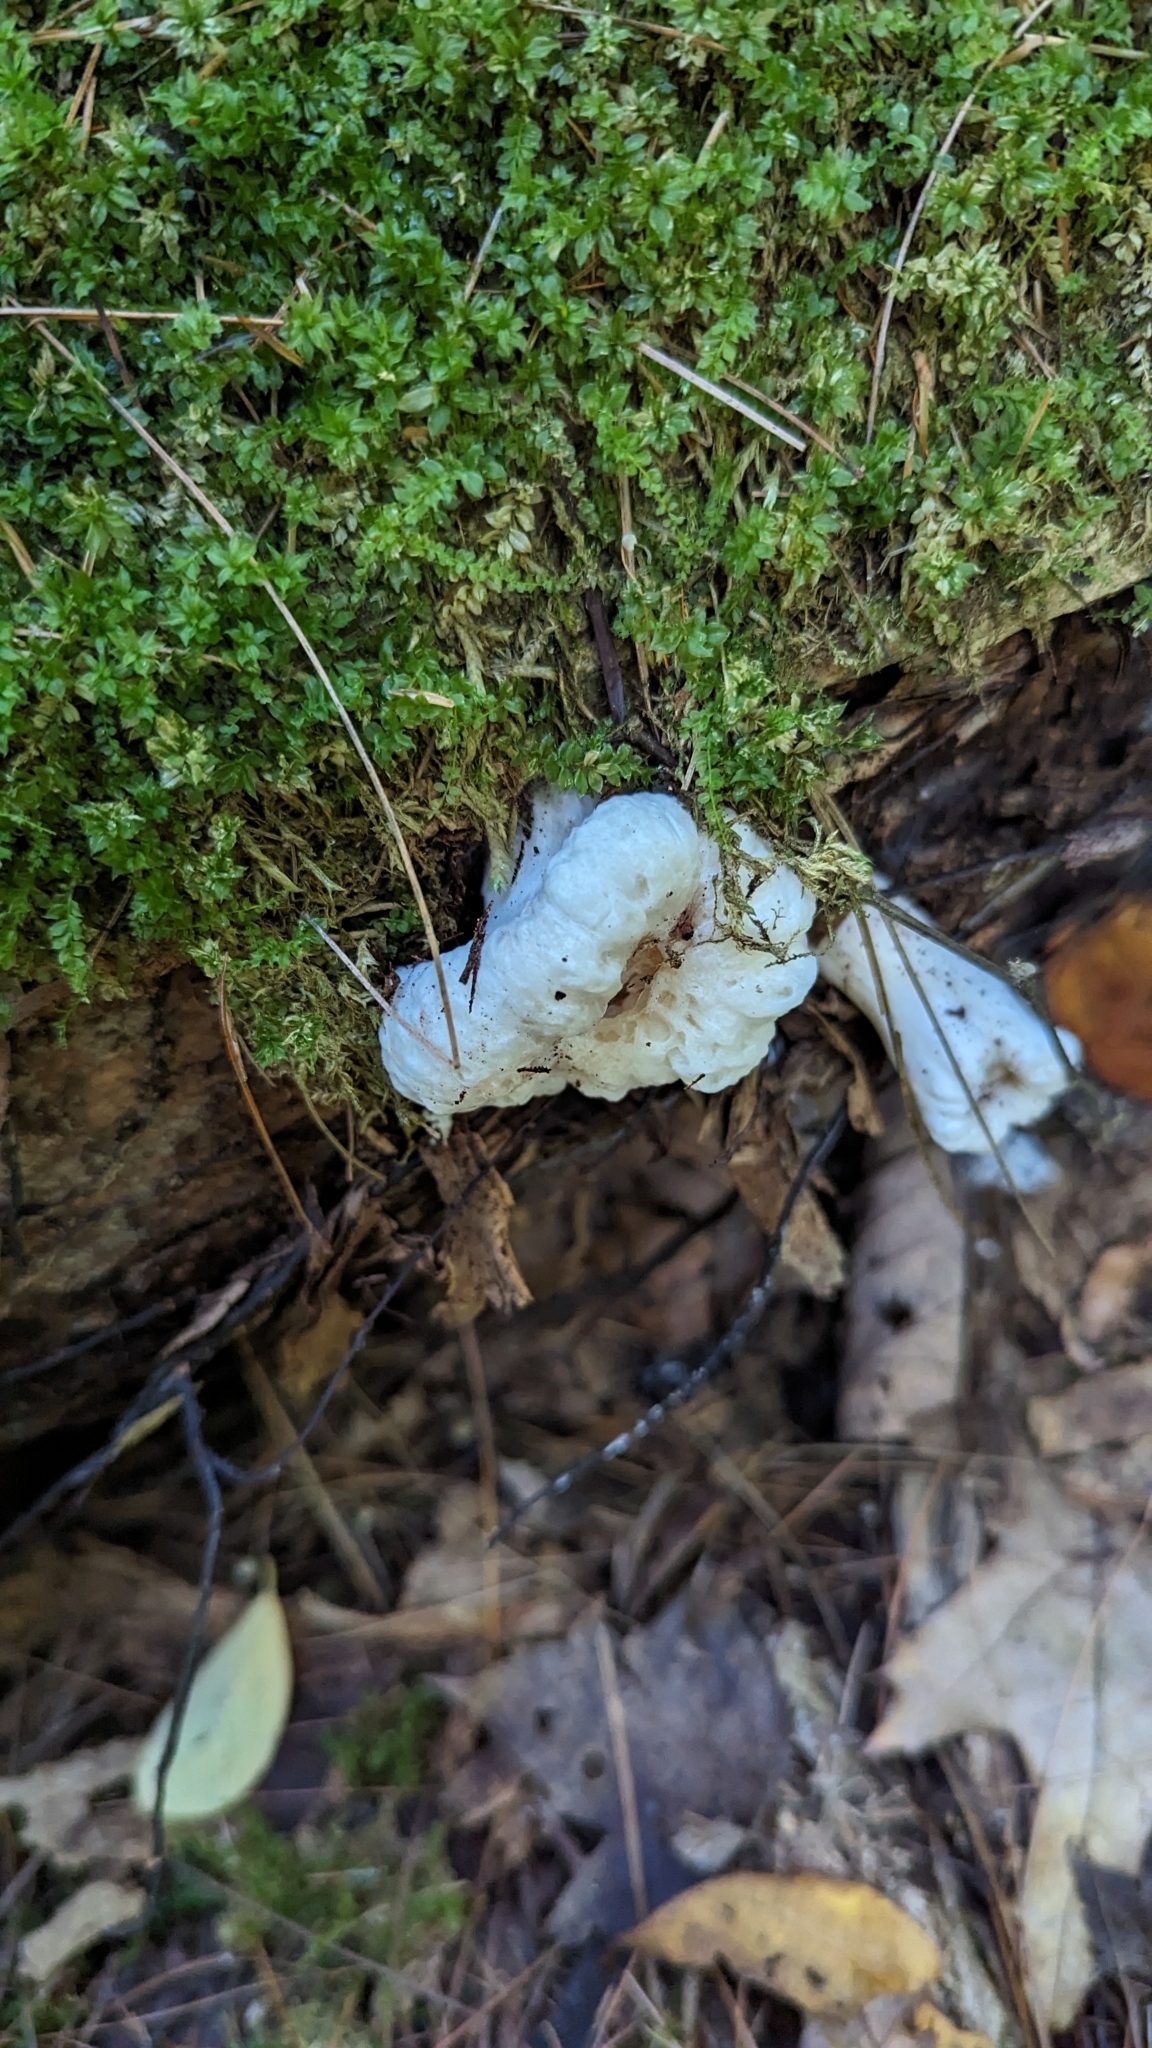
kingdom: Fungi
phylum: Basidiomycota
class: Agaricomycetes
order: Agaricales
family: Entolomataceae
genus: Entoloma
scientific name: Entoloma abortivum
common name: Aborted entoloma
